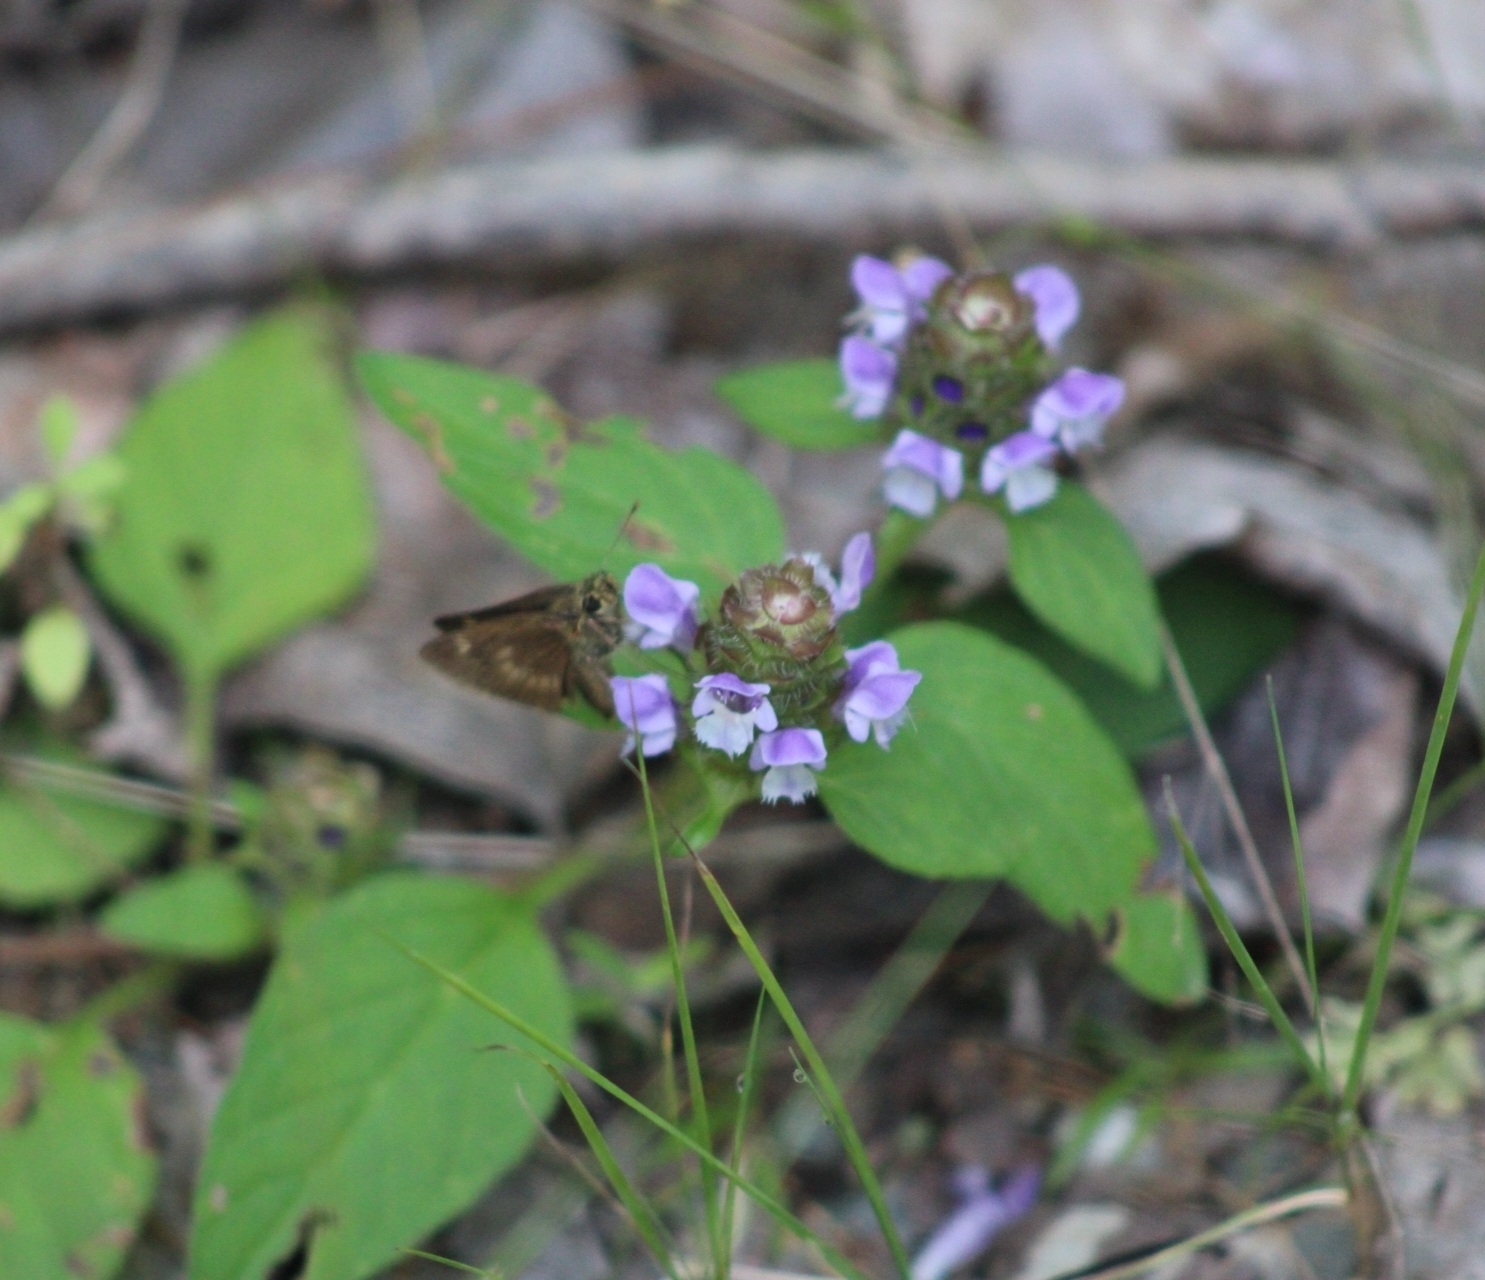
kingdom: Animalia
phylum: Arthropoda
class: Insecta
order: Lepidoptera
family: Hesperiidae
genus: Polites
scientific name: Polites egeremet
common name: Northern broken-dash
